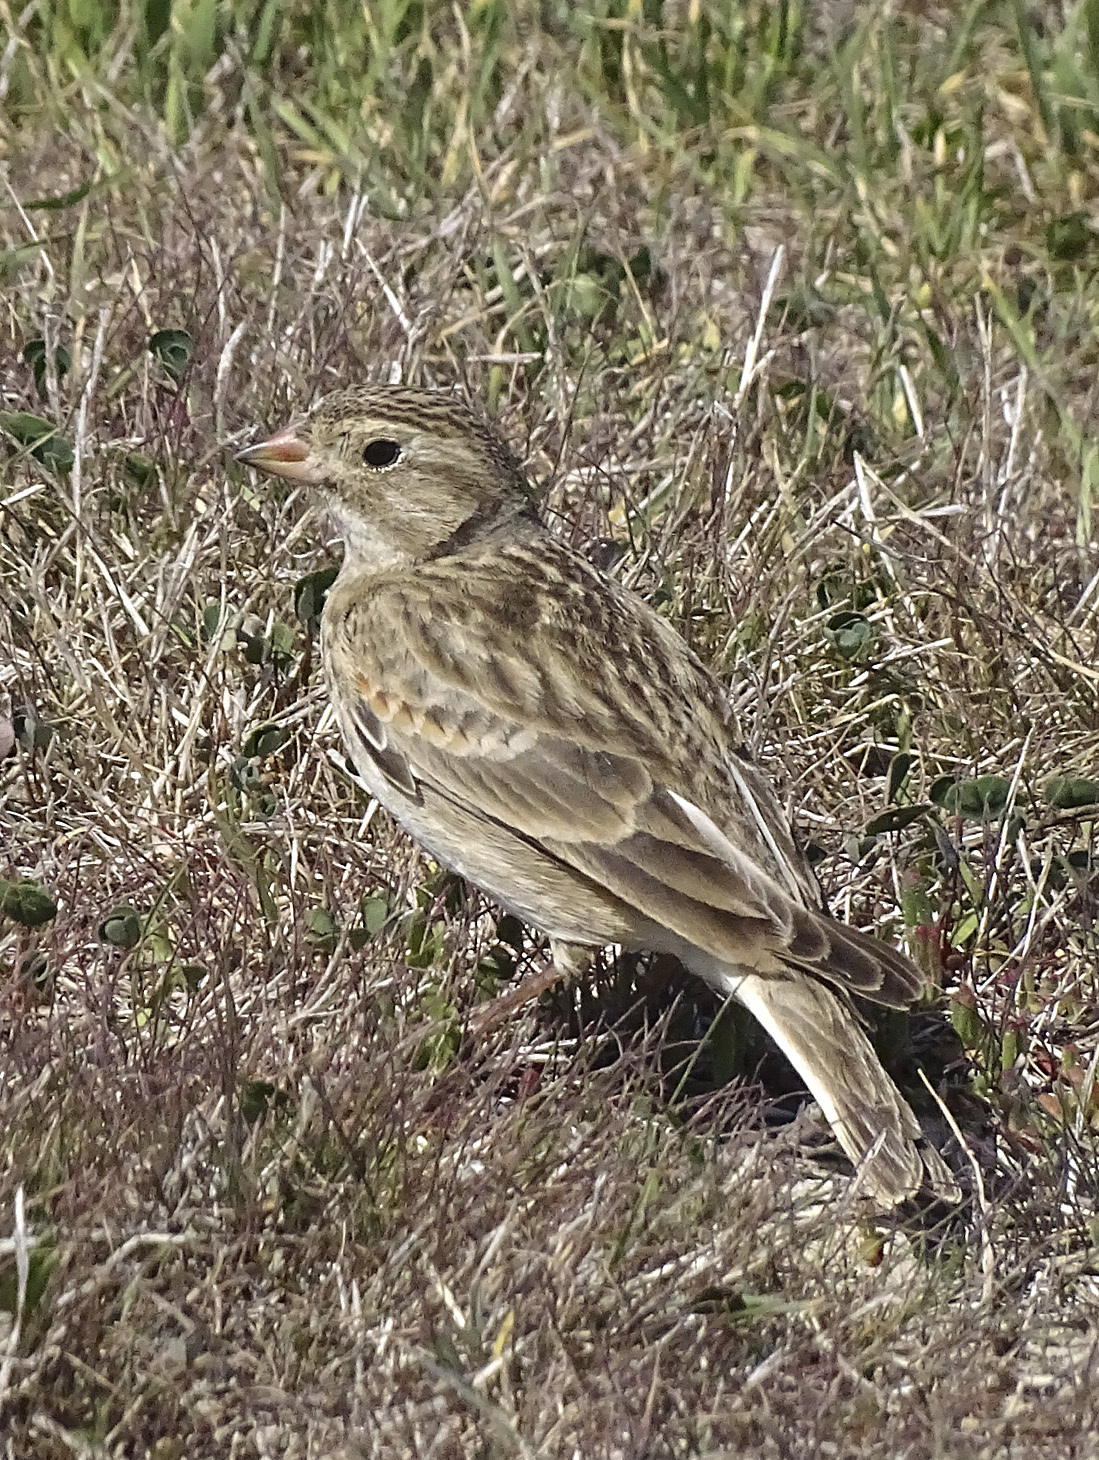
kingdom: Animalia
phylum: Chordata
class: Aves
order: Passeriformes
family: Calcariidae
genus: Rhynchophanes
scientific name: Rhynchophanes mccownii
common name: Mccown's longspur
